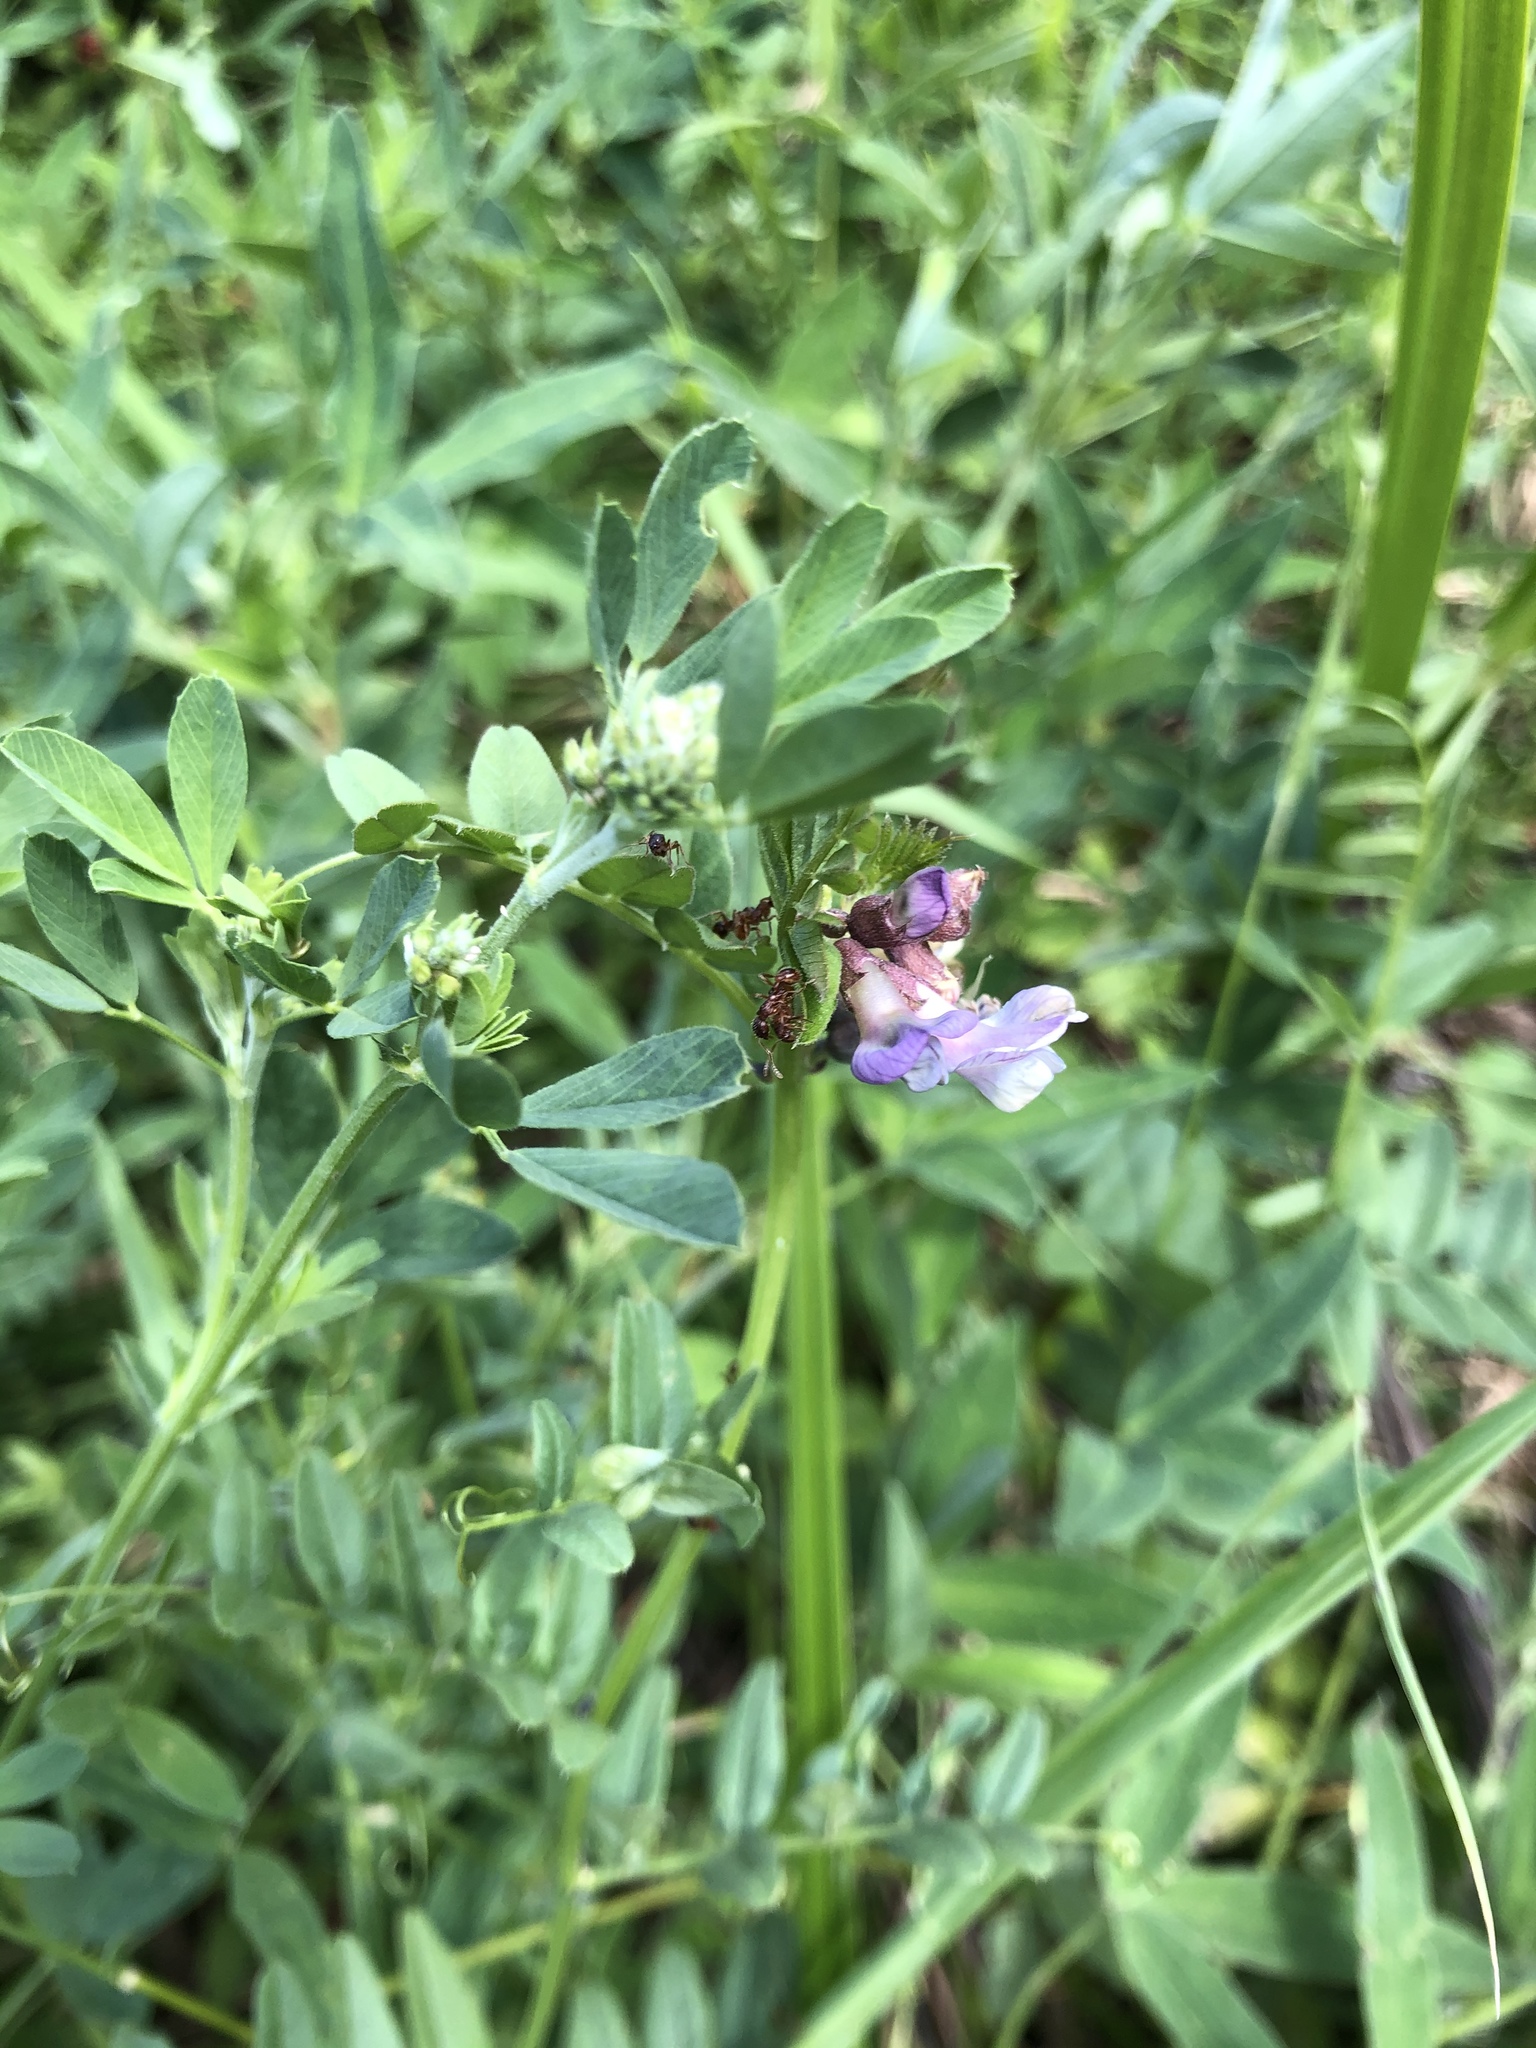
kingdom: Plantae
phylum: Tracheophyta
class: Magnoliopsida
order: Fabales
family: Fabaceae
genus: Vicia
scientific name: Vicia sepium
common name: Bush vetch
